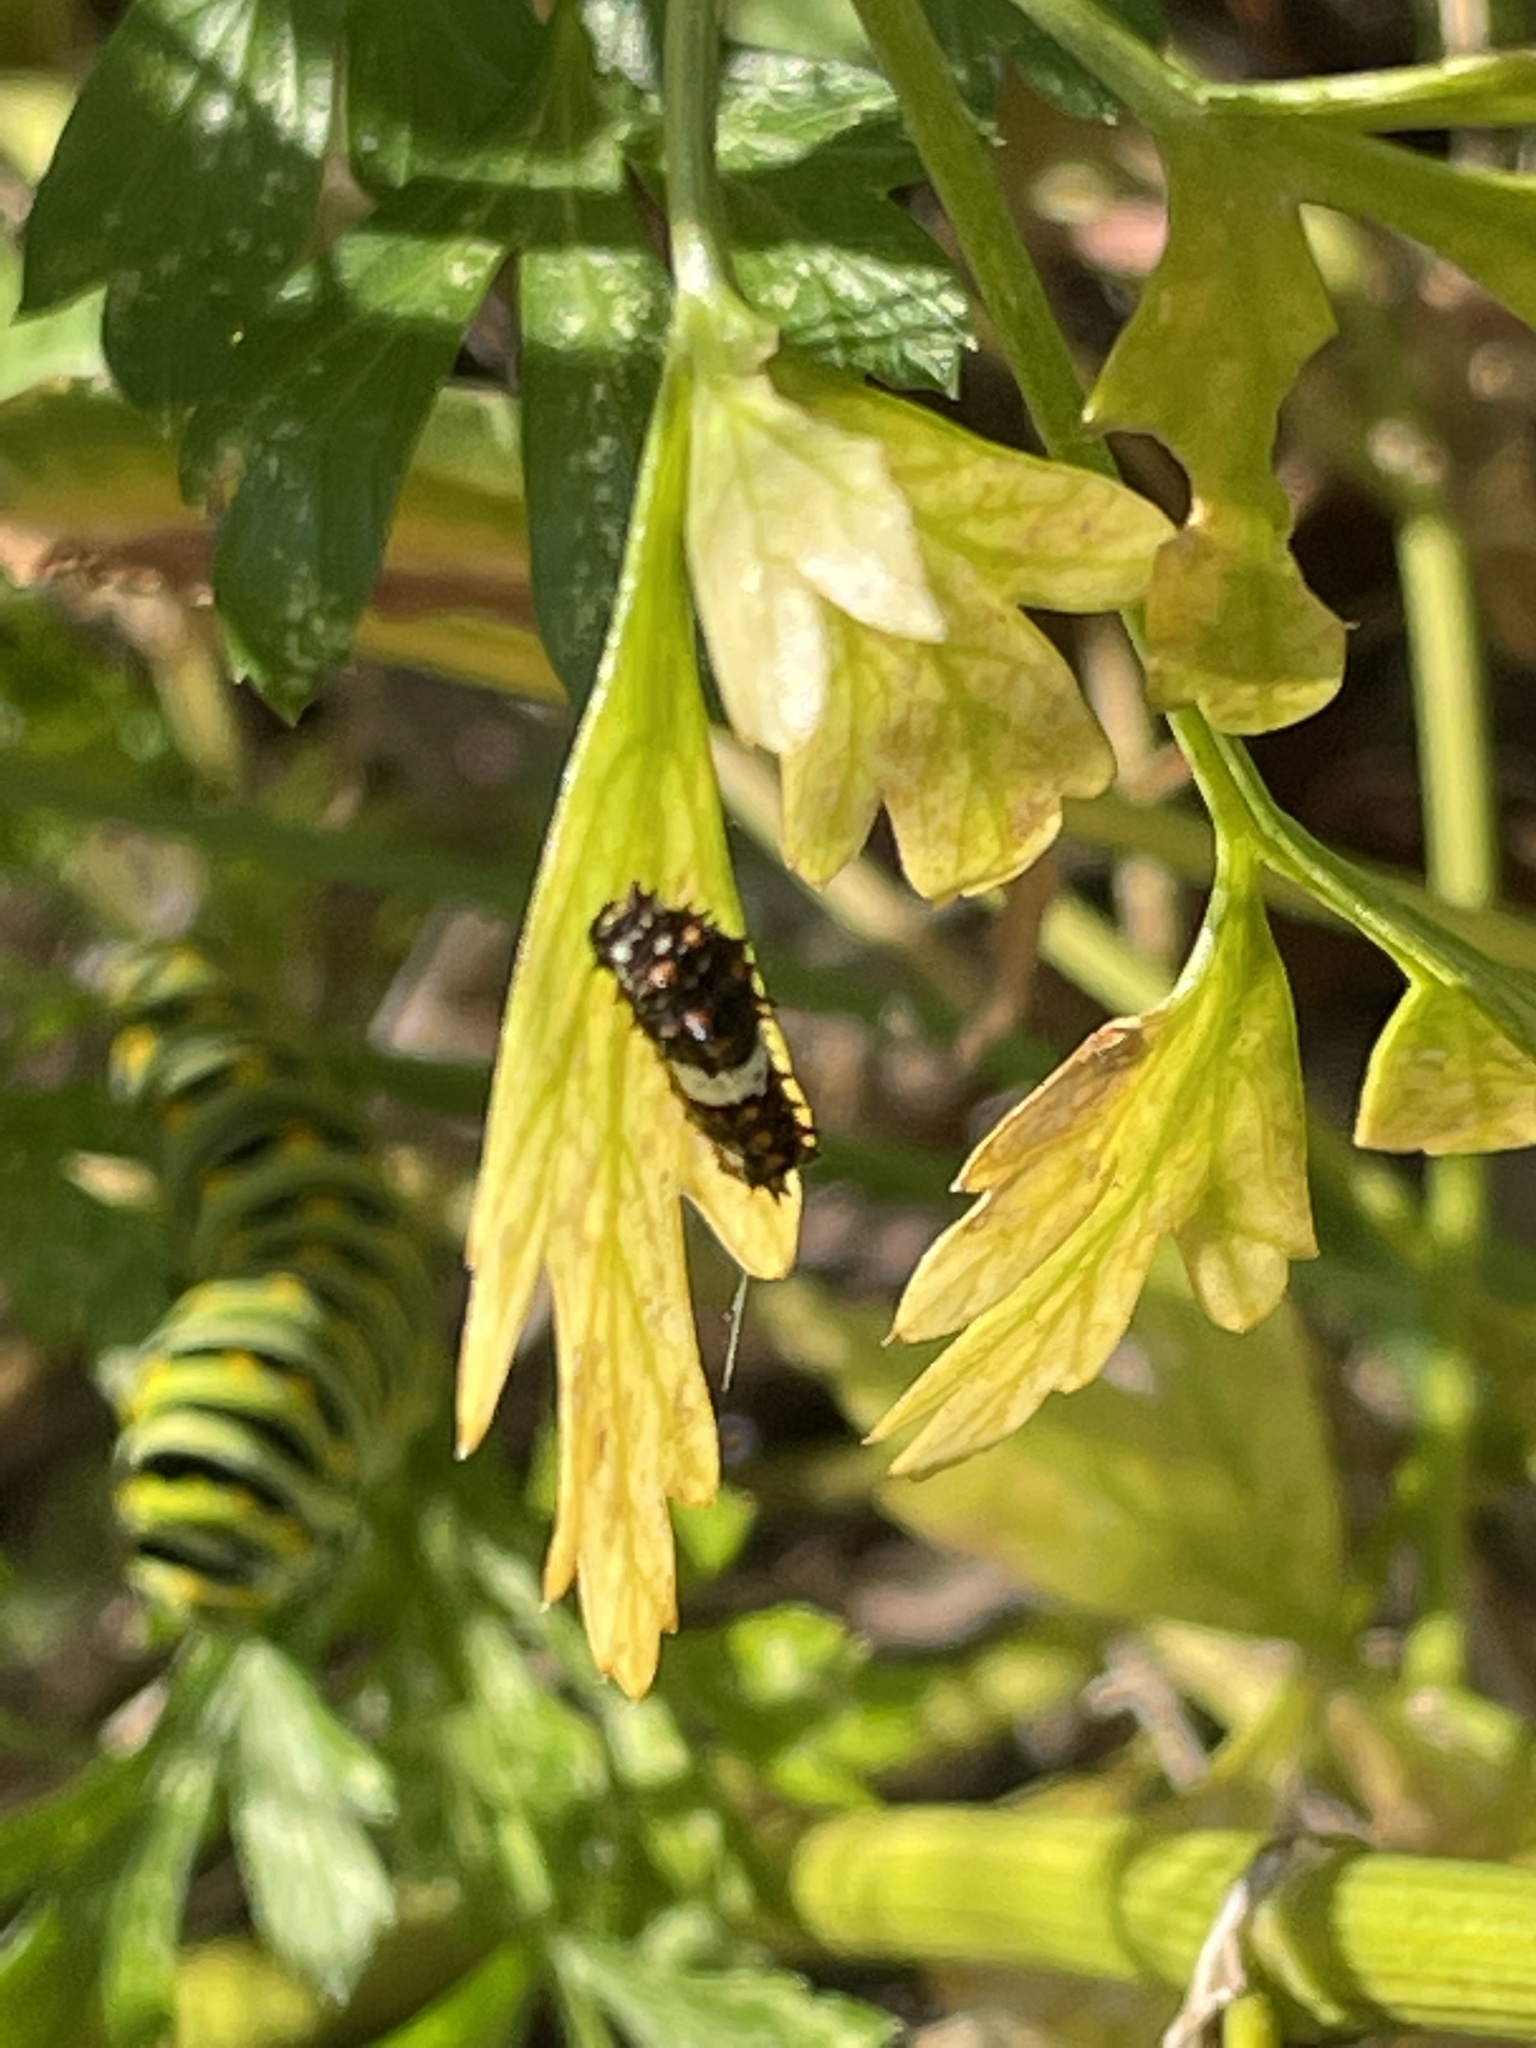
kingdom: Animalia
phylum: Arthropoda
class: Insecta
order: Lepidoptera
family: Papilionidae
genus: Papilio
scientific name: Papilio polyxenes
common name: Black swallowtail
